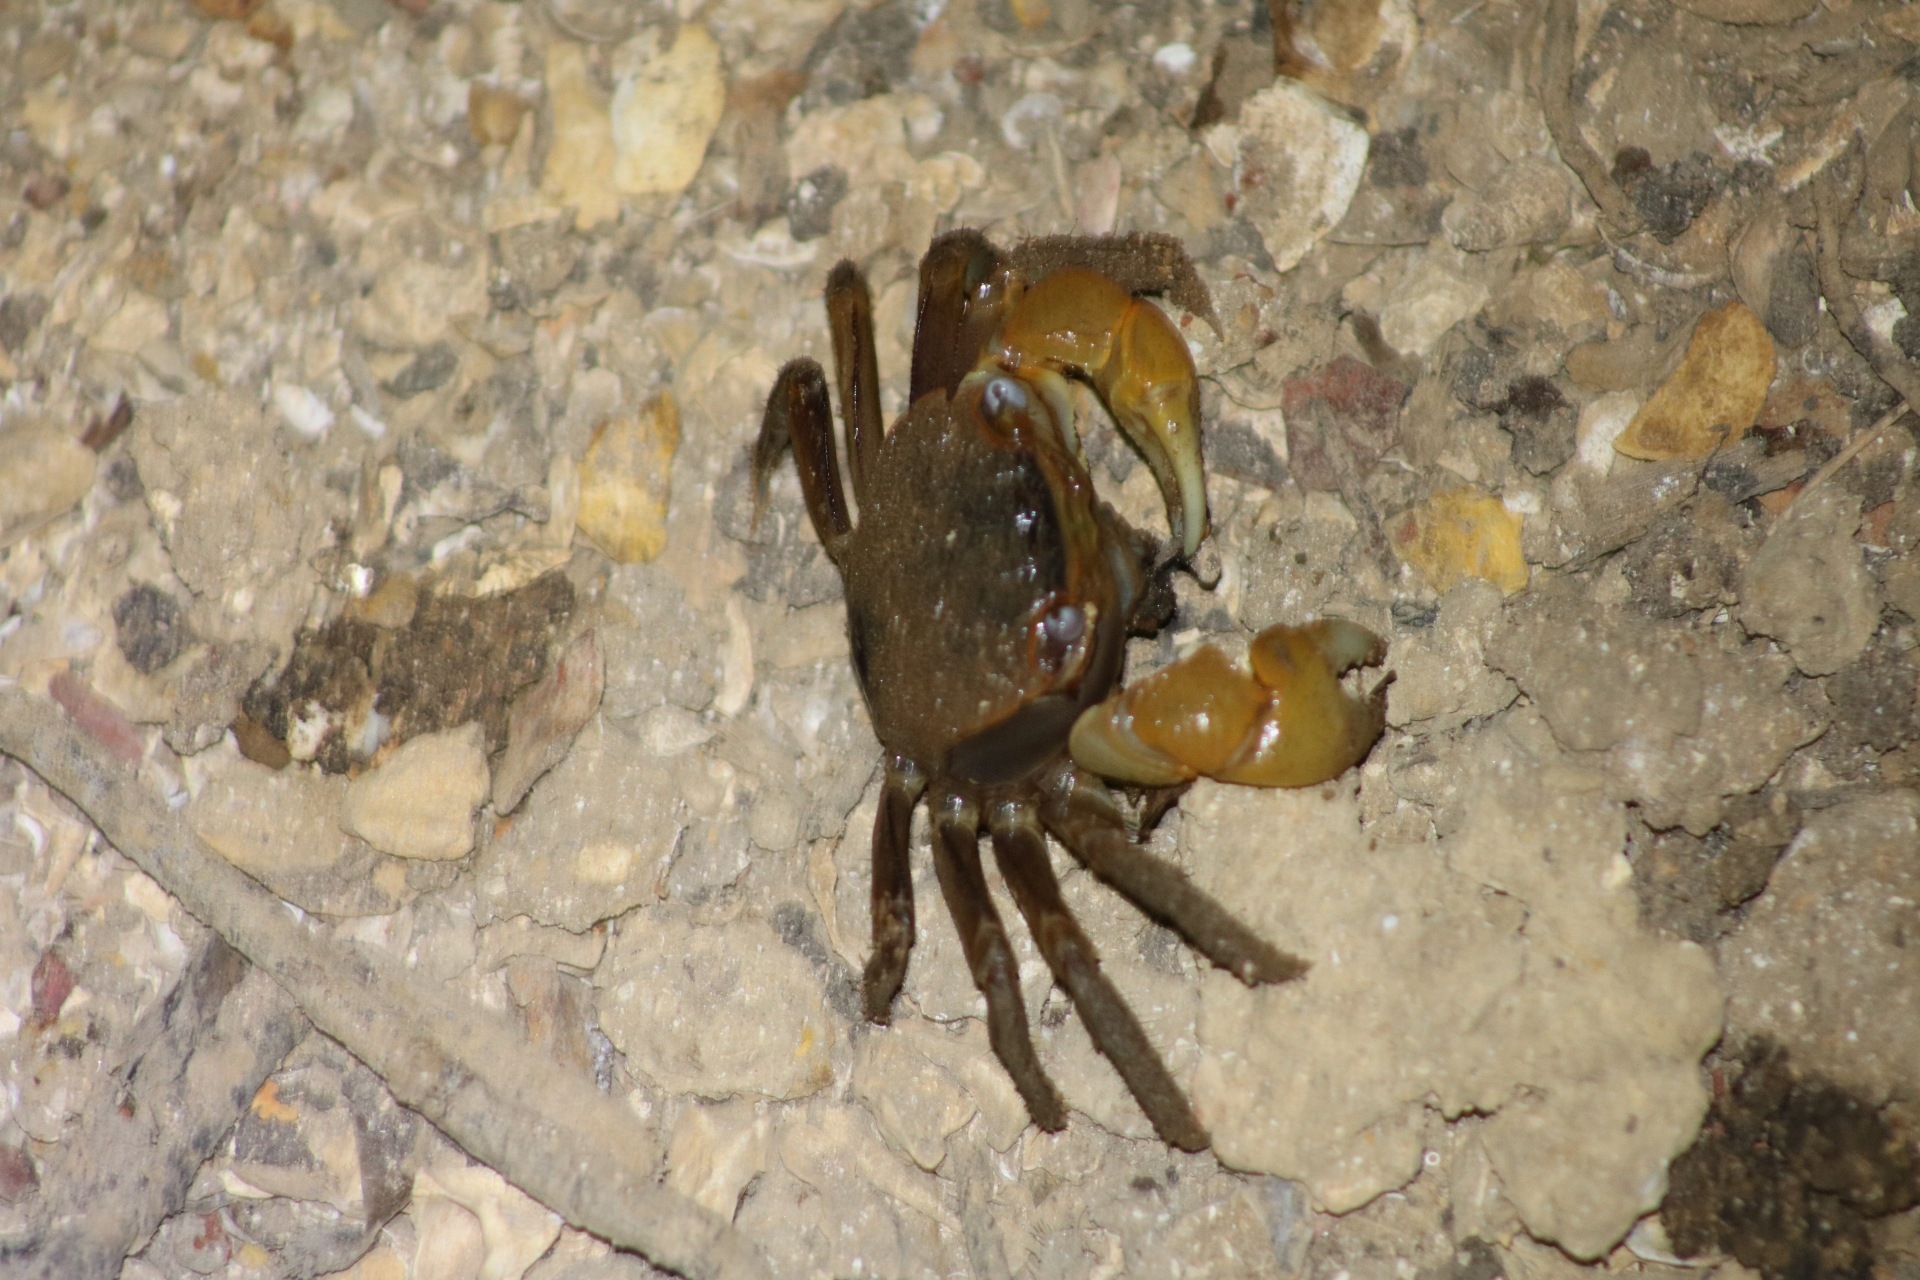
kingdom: Animalia
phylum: Arthropoda
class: Malacostraca
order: Decapoda
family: Sesarmidae
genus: Neosarmatium
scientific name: Neosarmatium australiense
